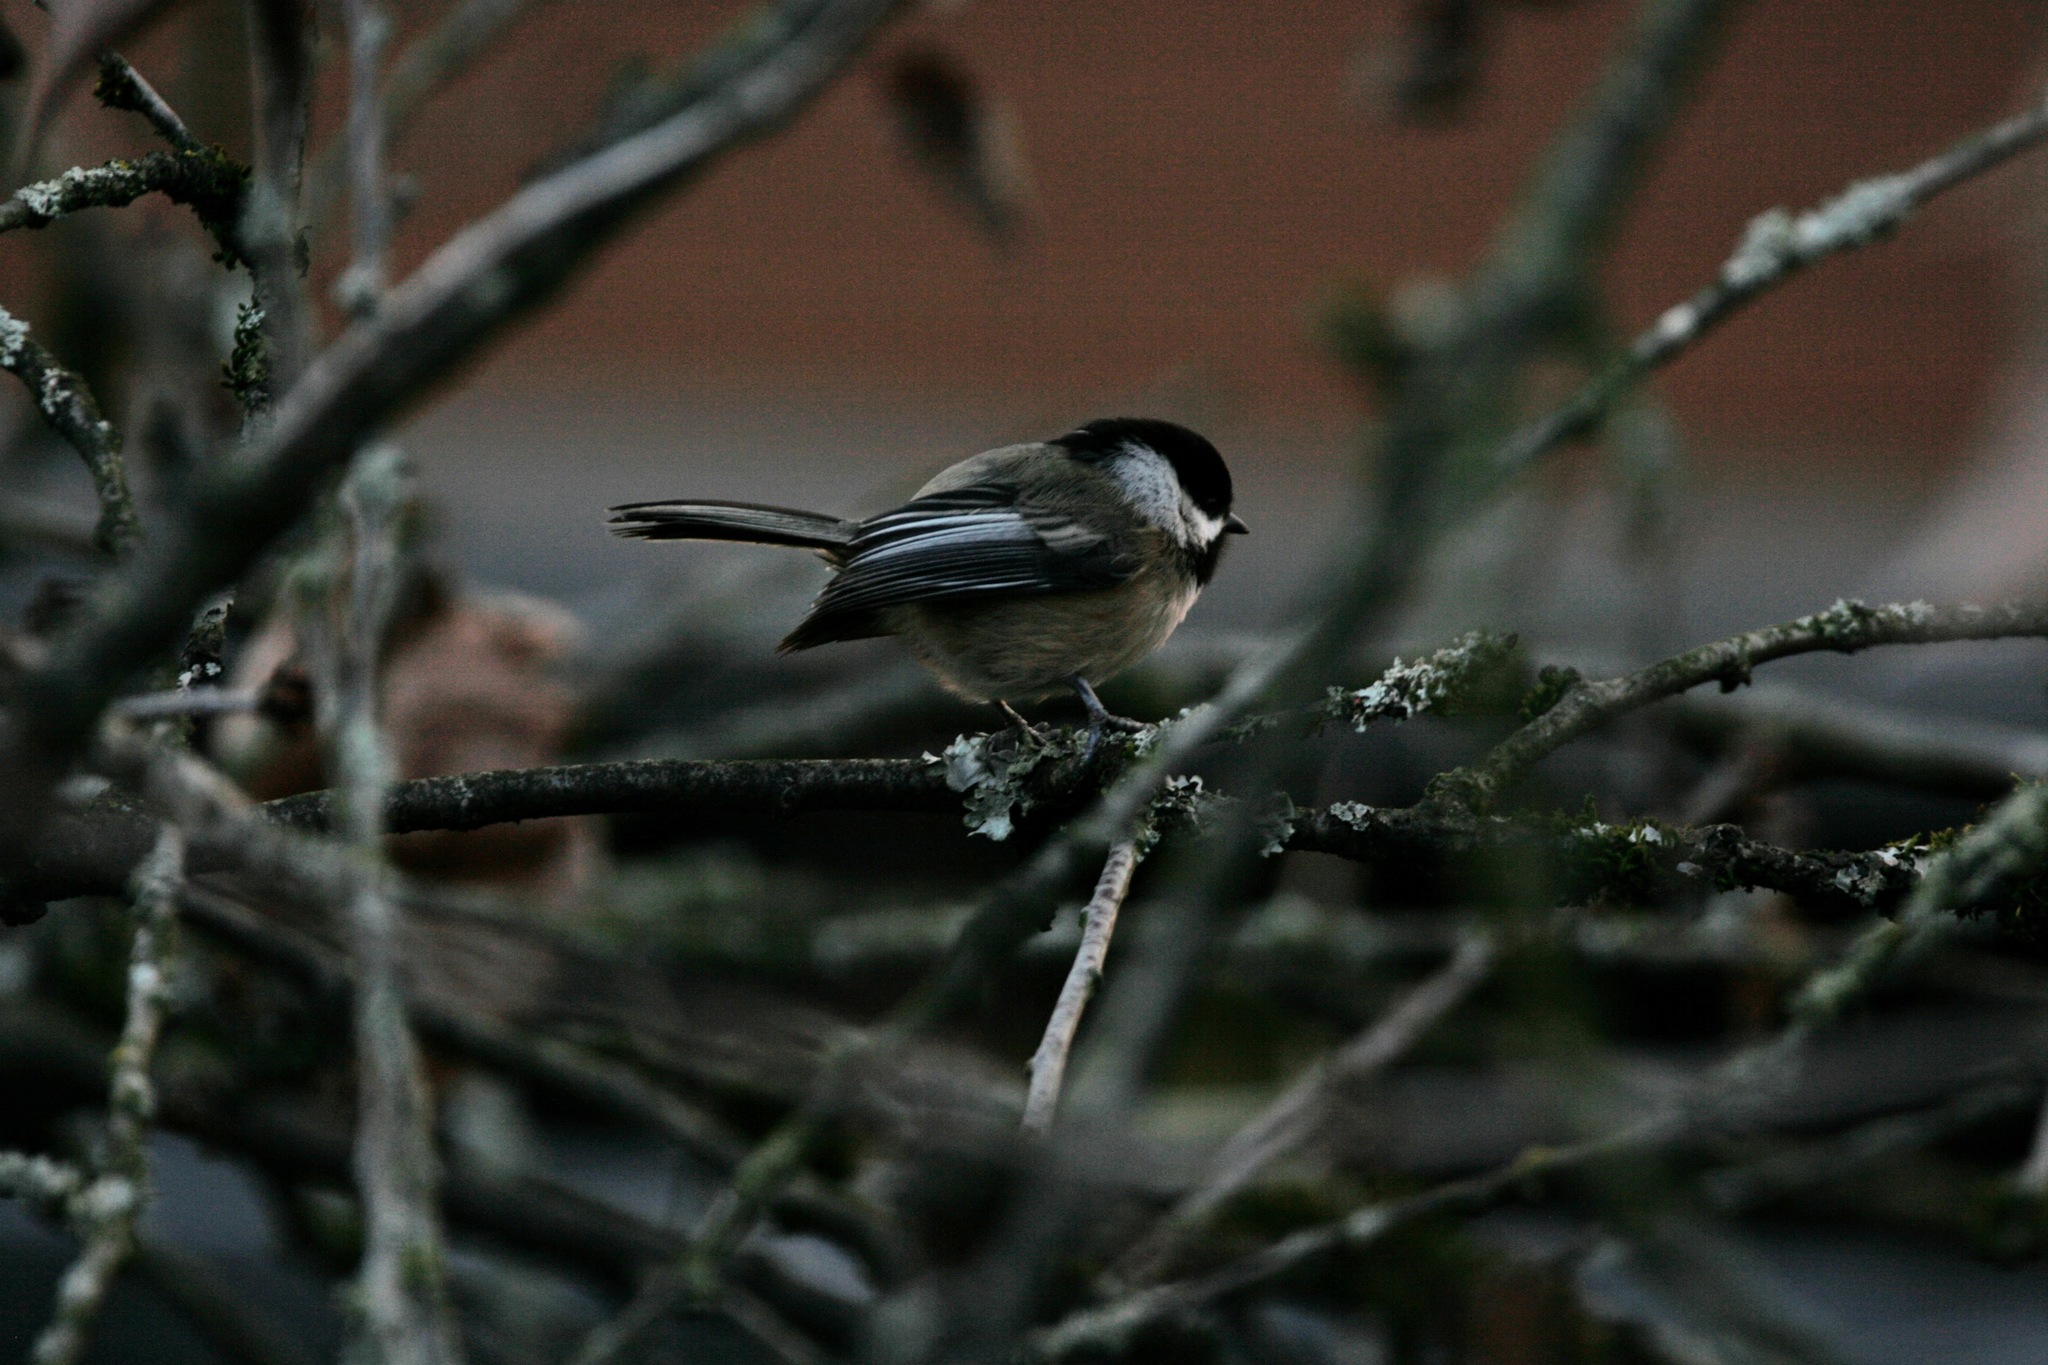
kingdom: Animalia
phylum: Chordata
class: Aves
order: Passeriformes
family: Paridae
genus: Poecile
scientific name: Poecile atricapillus
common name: Black-capped chickadee
